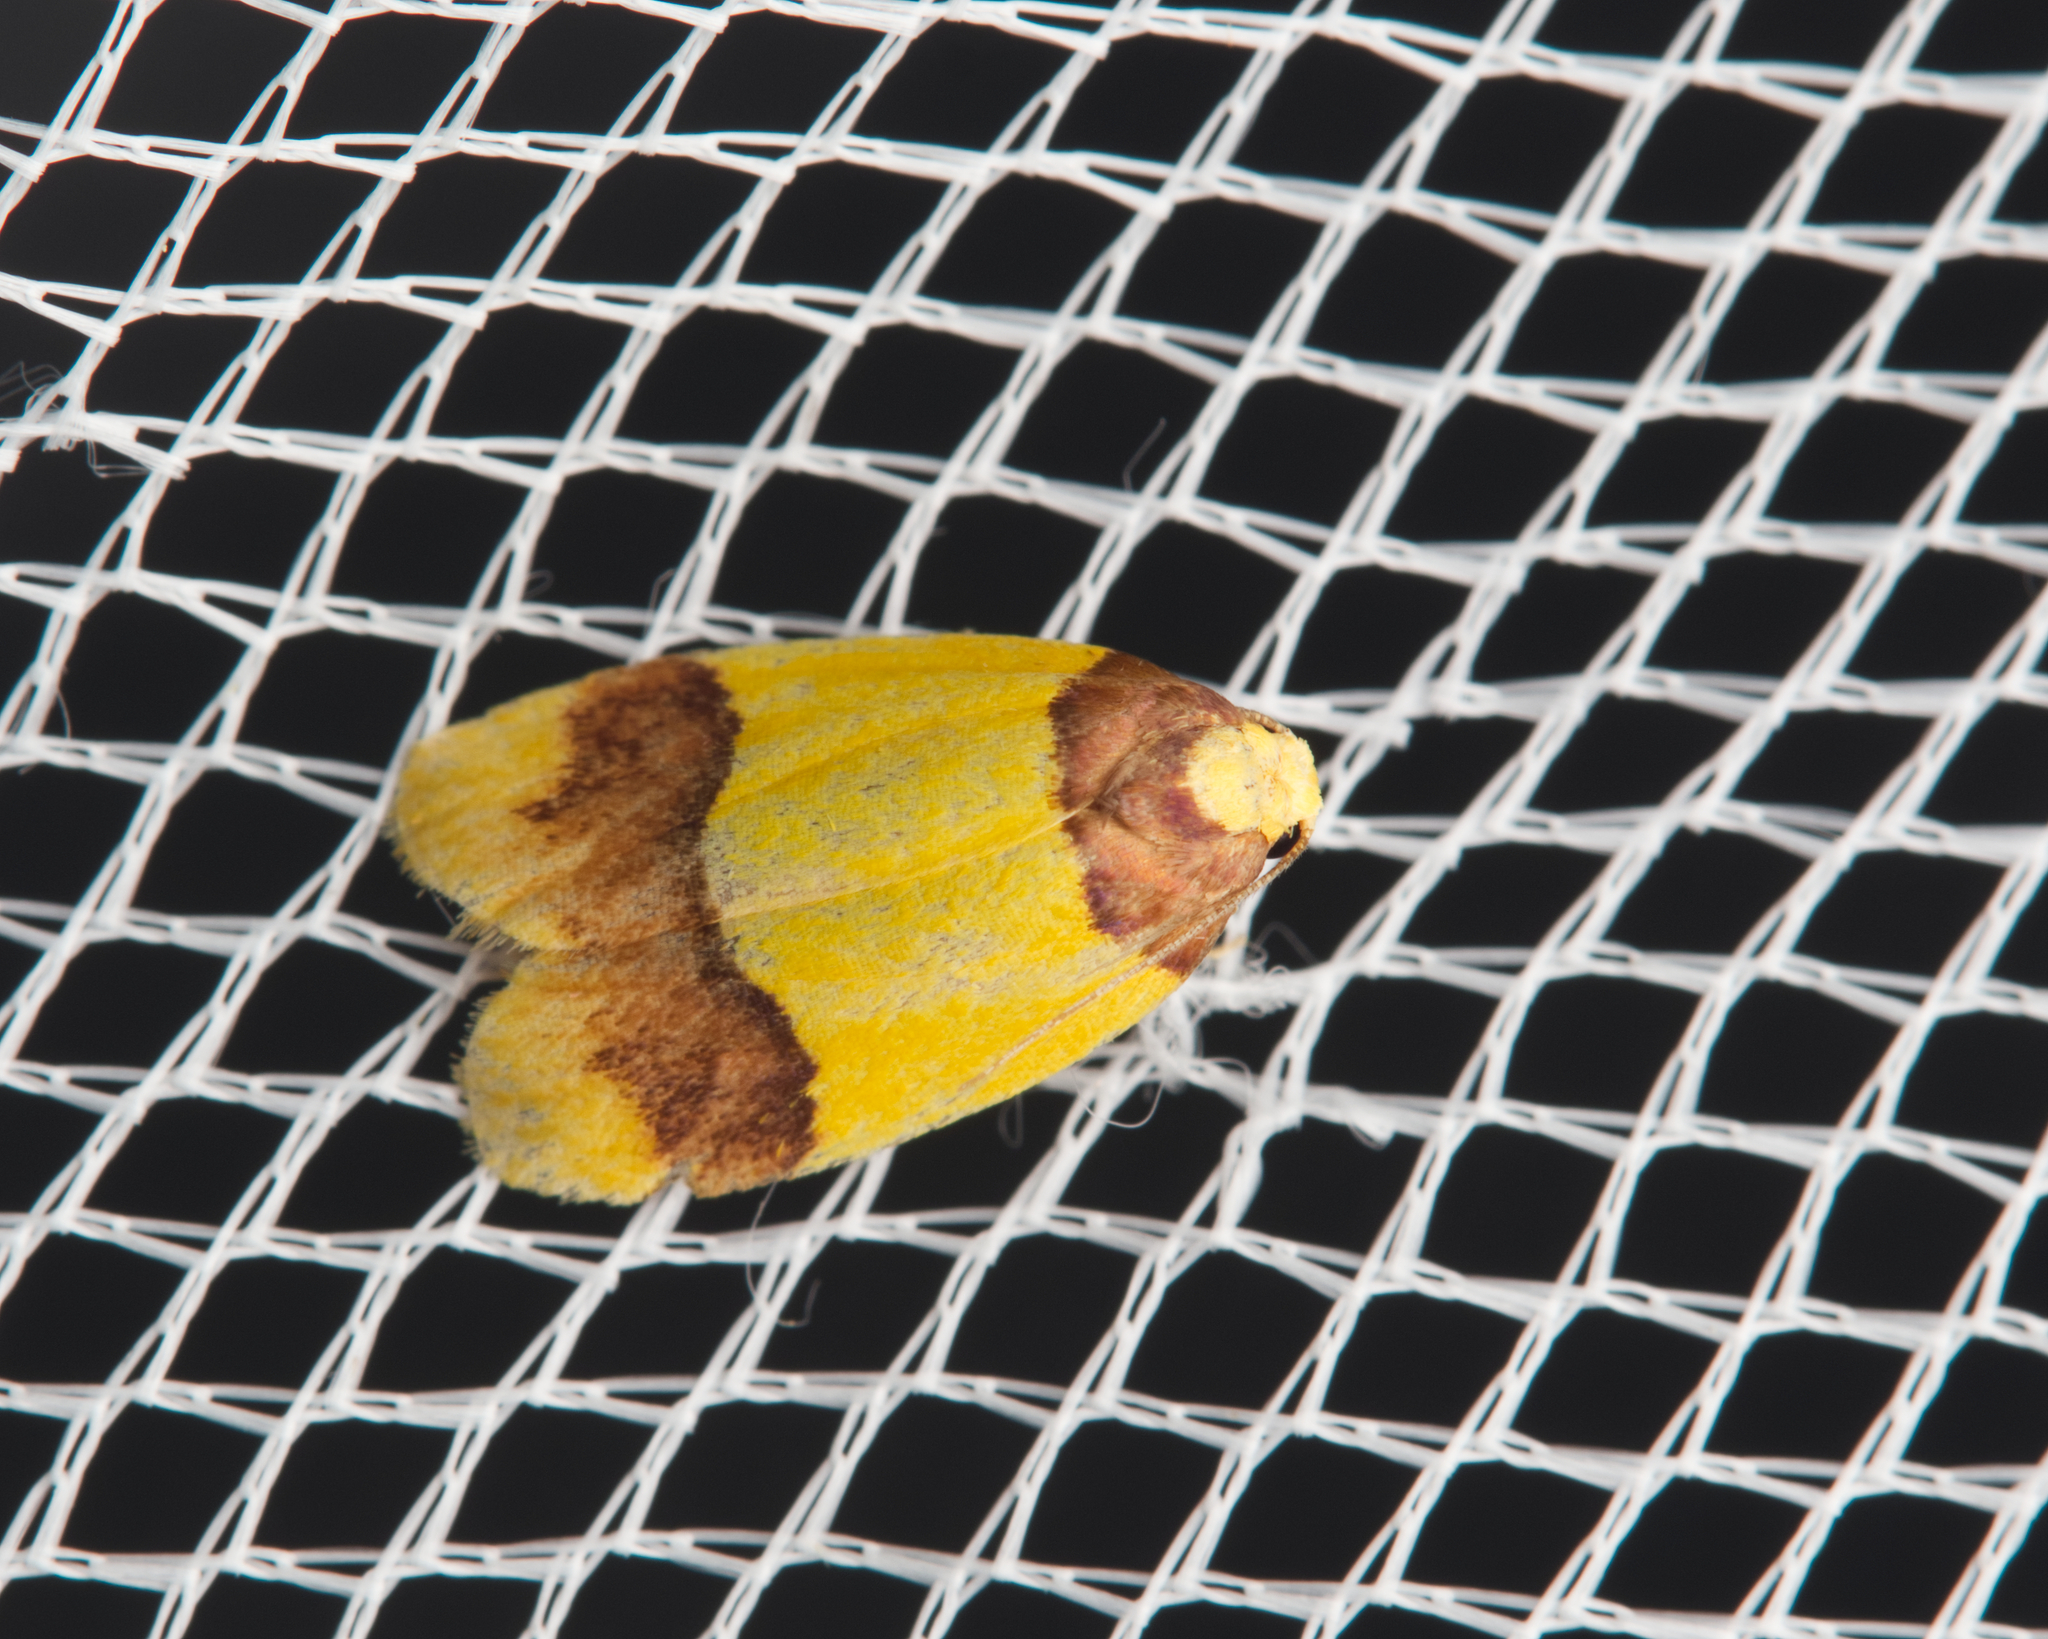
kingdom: Animalia
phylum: Arthropoda
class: Insecta
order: Lepidoptera
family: Erebidae
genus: Heterallactis
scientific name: Heterallactis euchrysa
